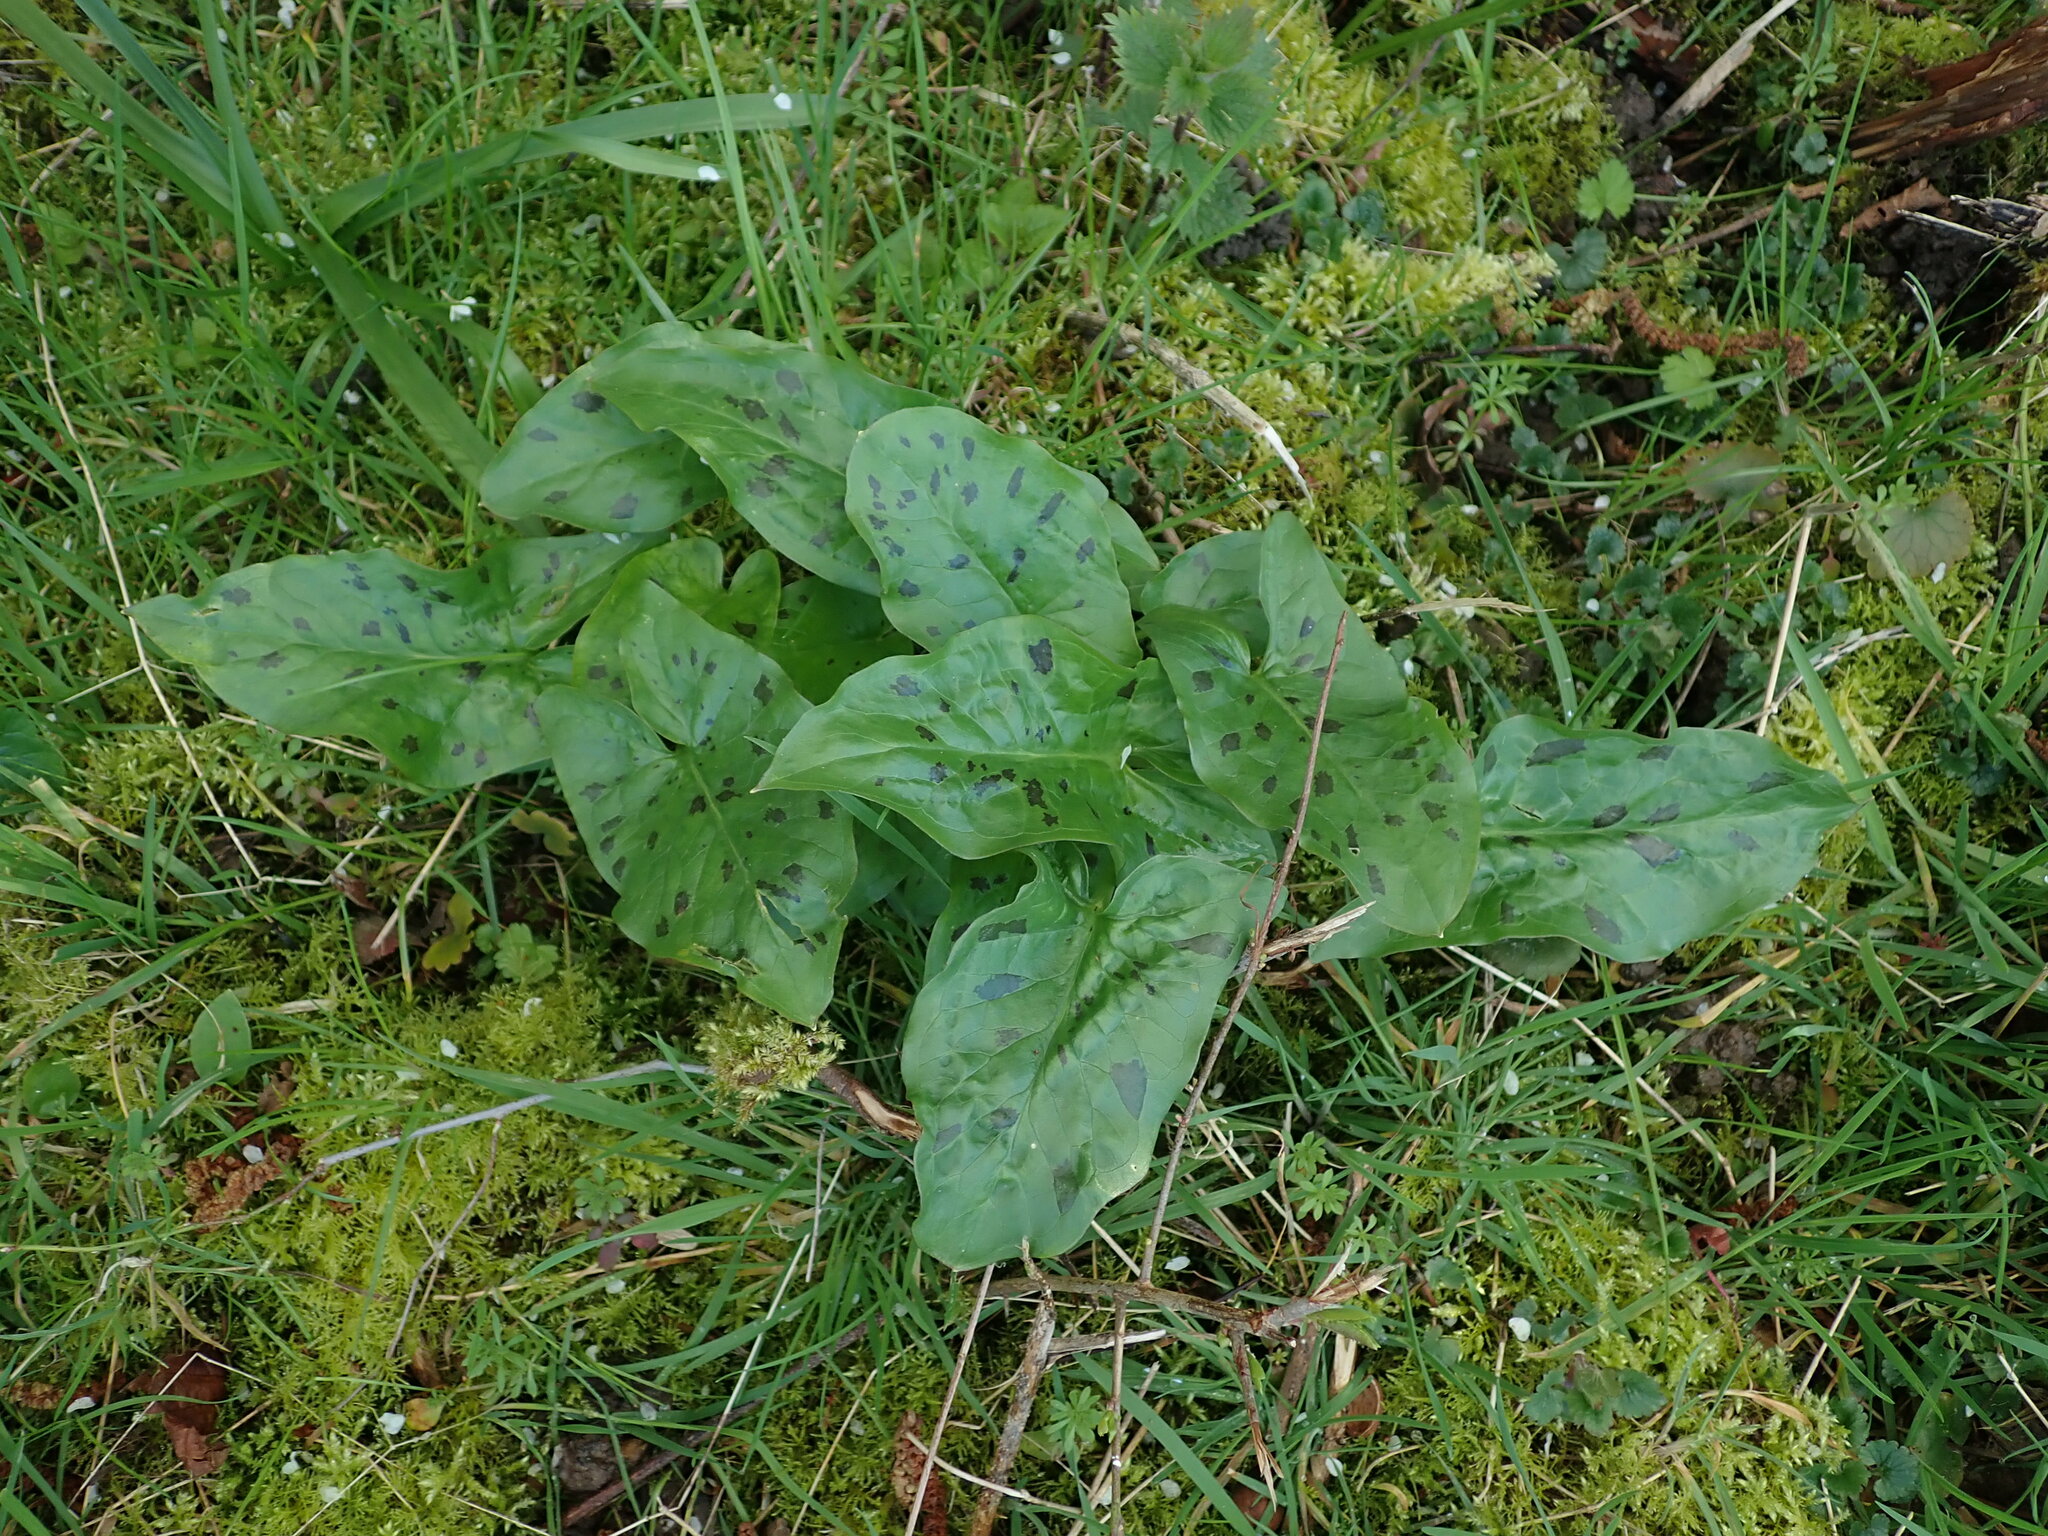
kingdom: Plantae
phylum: Tracheophyta
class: Liliopsida
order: Alismatales
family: Araceae
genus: Arum
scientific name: Arum maculatum
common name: Lords-and-ladies
